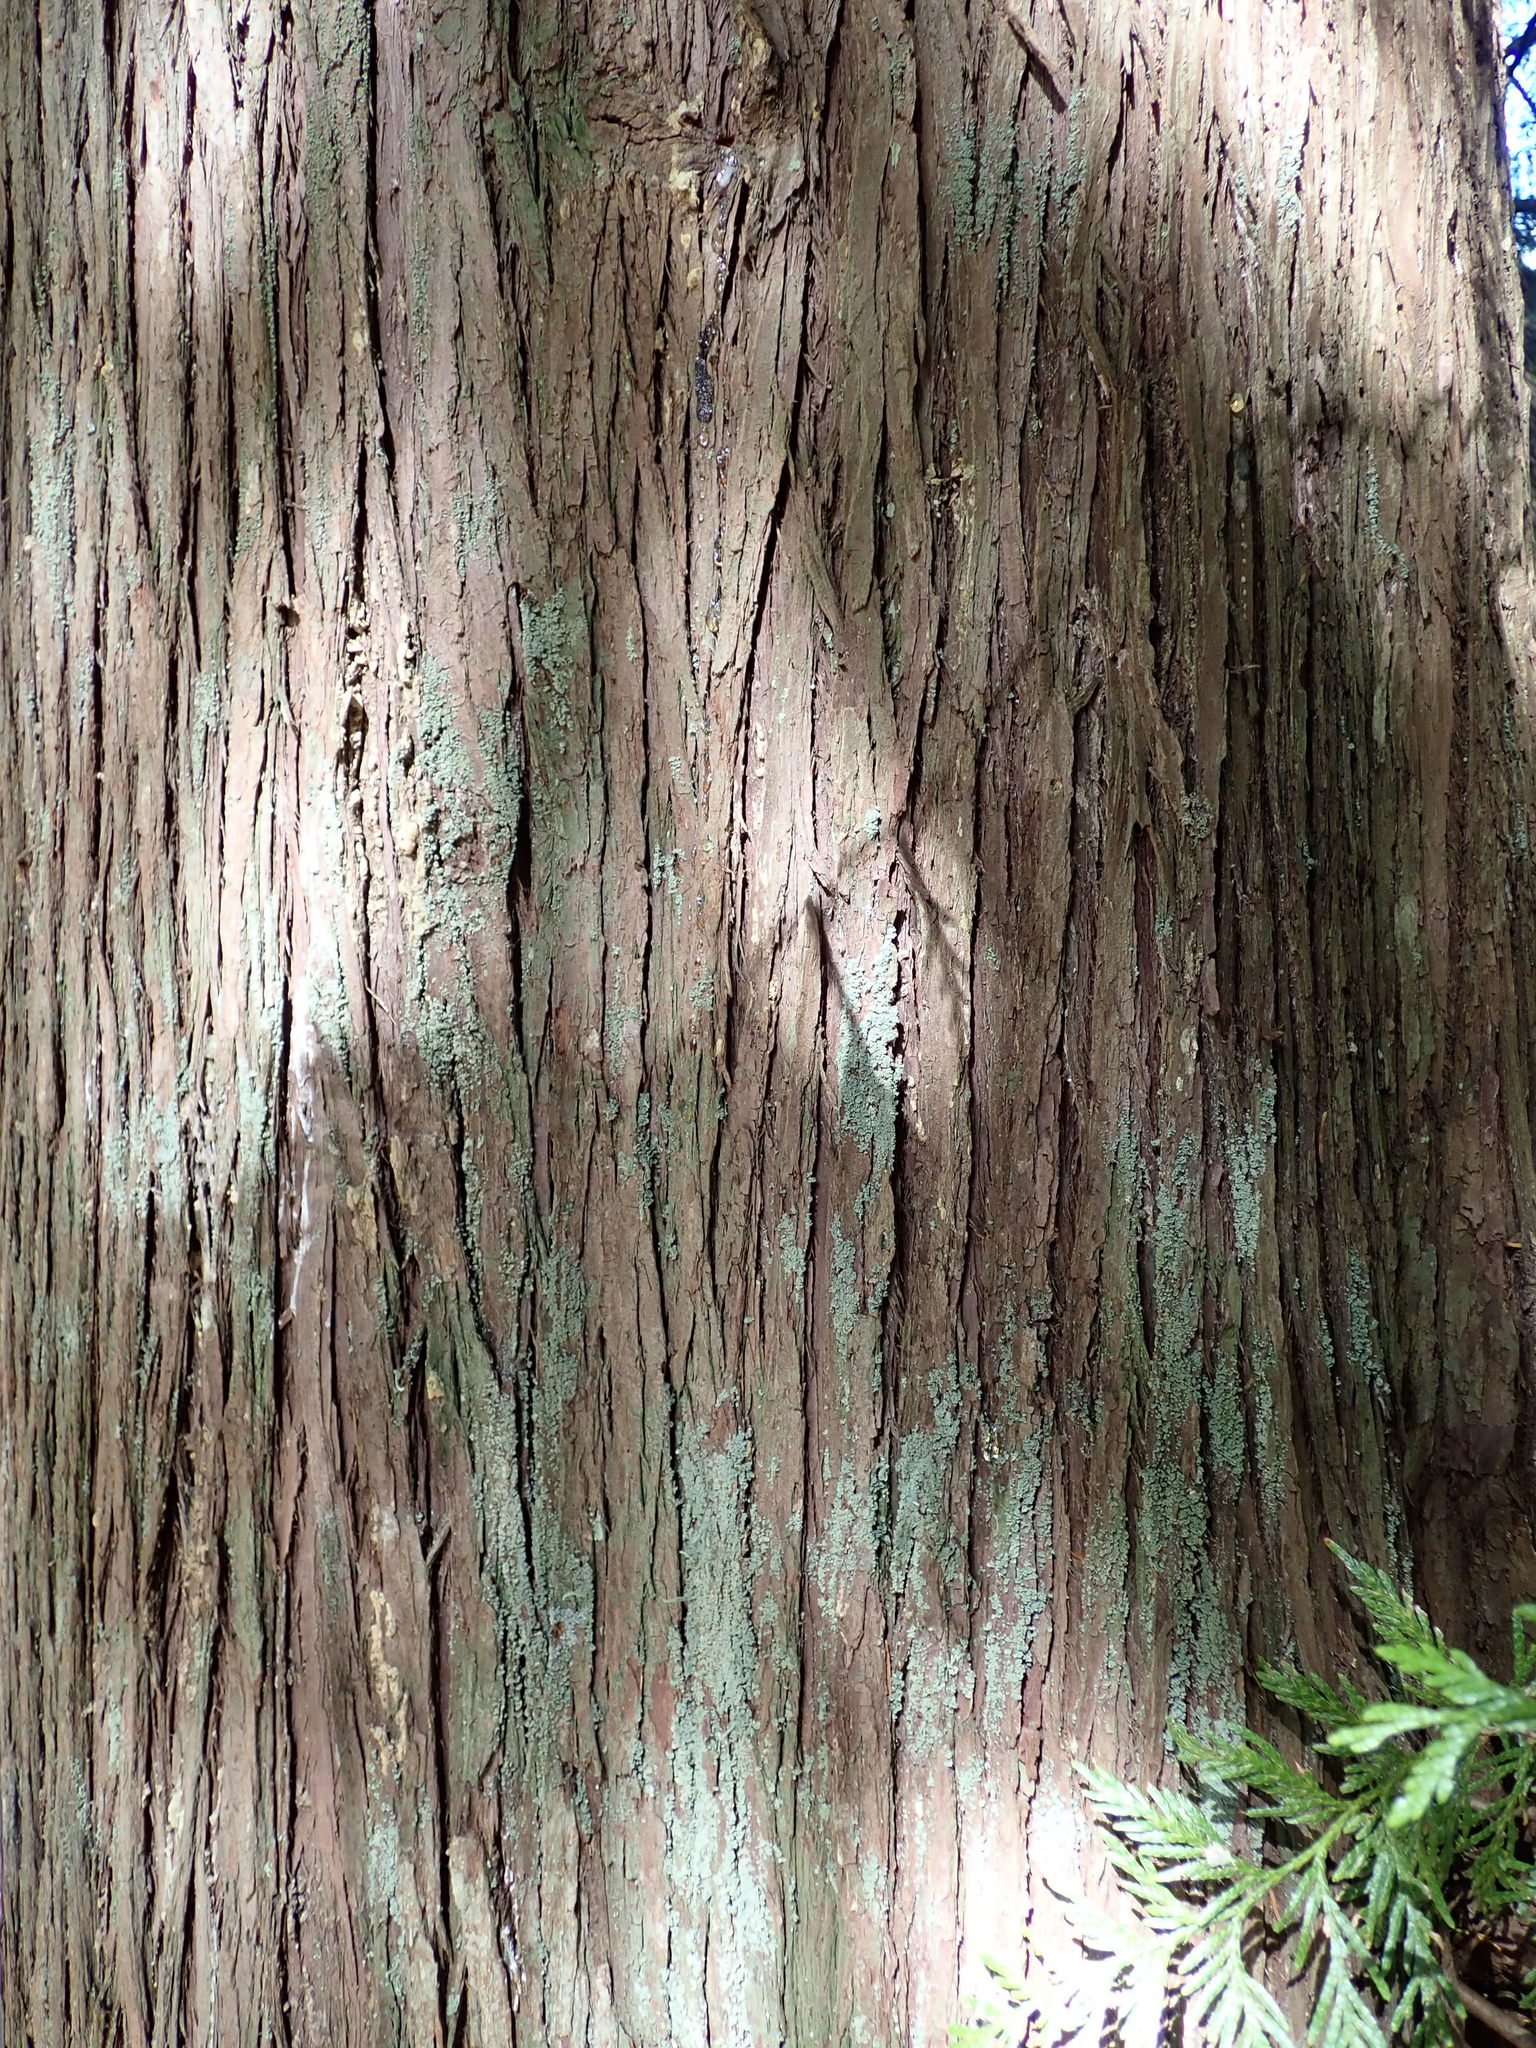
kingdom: Plantae
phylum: Tracheophyta
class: Pinopsida
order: Pinales
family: Cupressaceae
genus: Thuja
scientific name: Thuja plicata
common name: Western red-cedar
